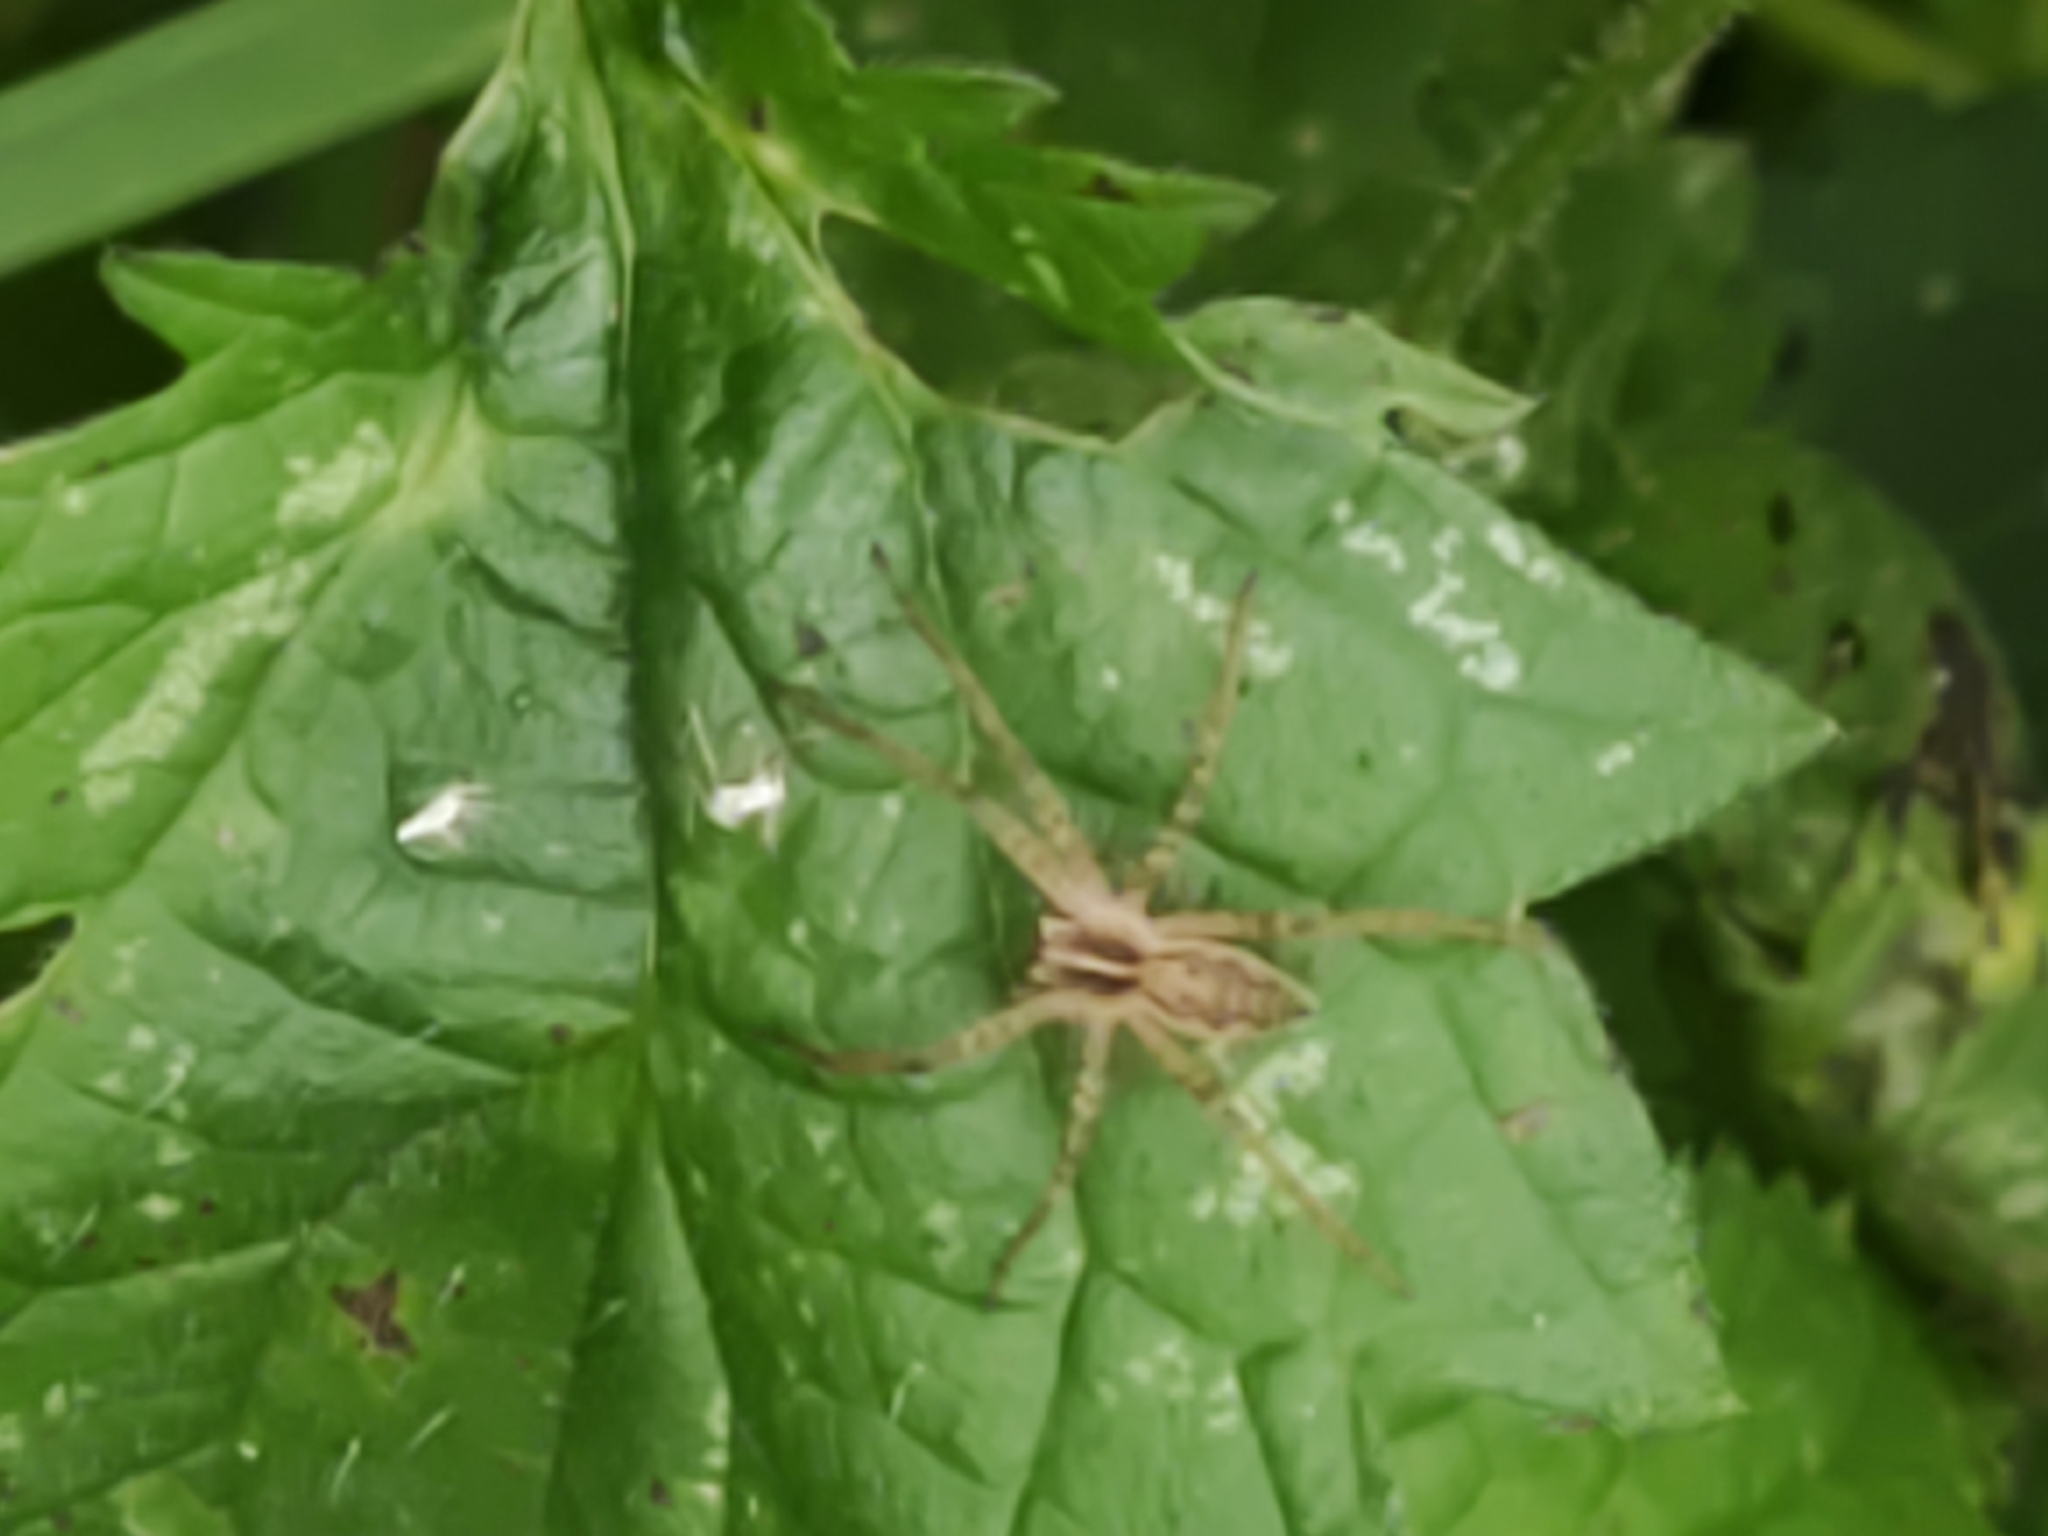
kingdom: Animalia
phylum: Arthropoda
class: Arachnida
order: Araneae
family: Pisauridae
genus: Pisaura
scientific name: Pisaura mirabilis
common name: Tent spider
